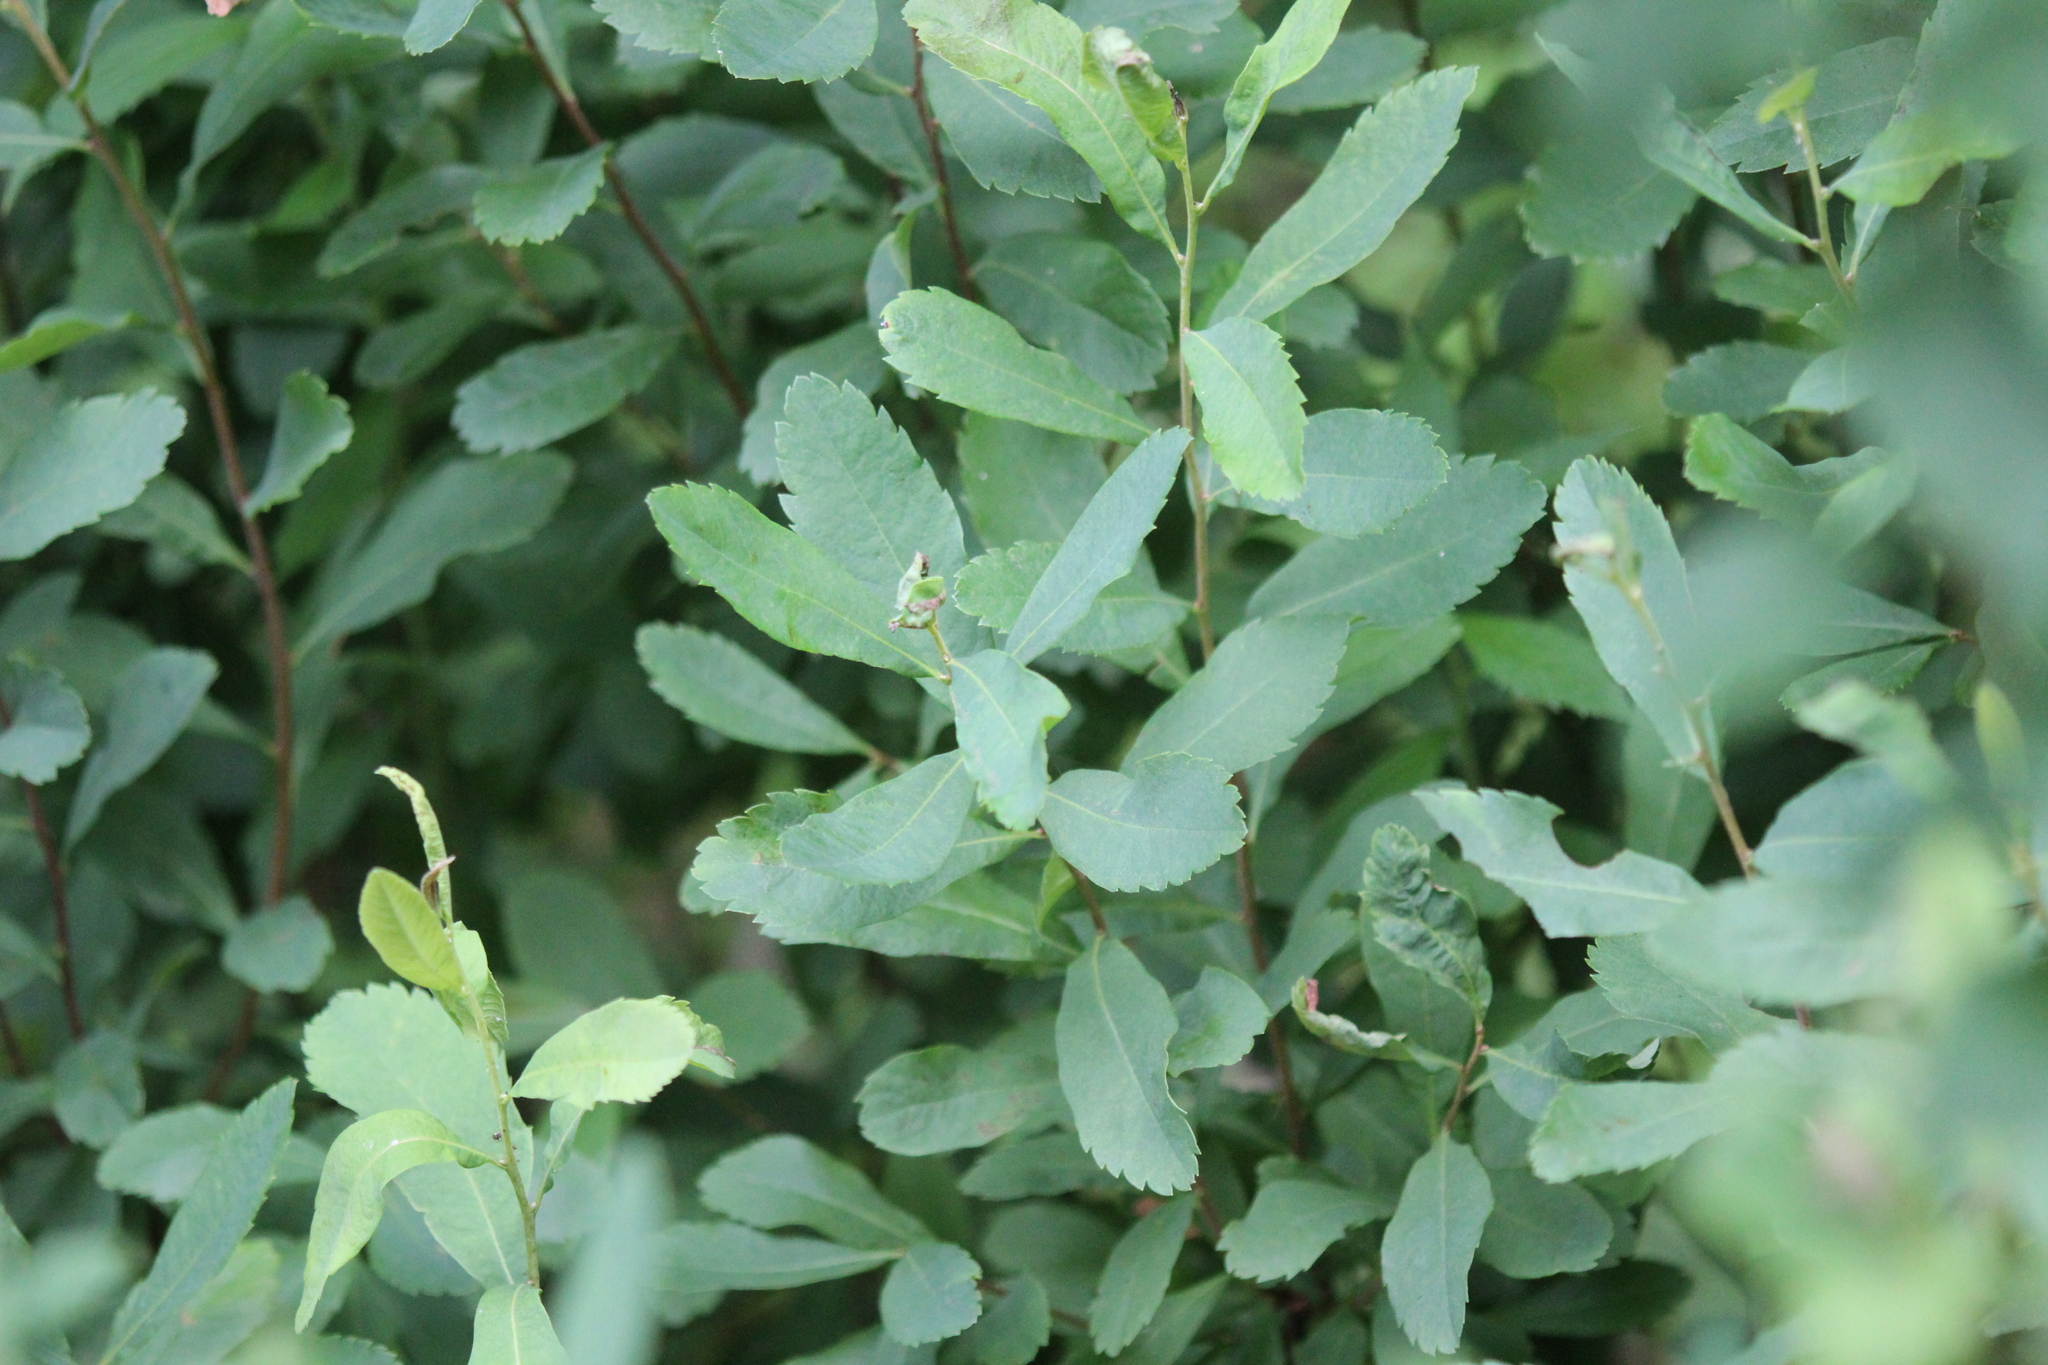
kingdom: Plantae
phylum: Tracheophyta
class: Magnoliopsida
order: Fagales
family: Myricaceae
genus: Myrica
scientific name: Myrica gale
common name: Sweet gale
